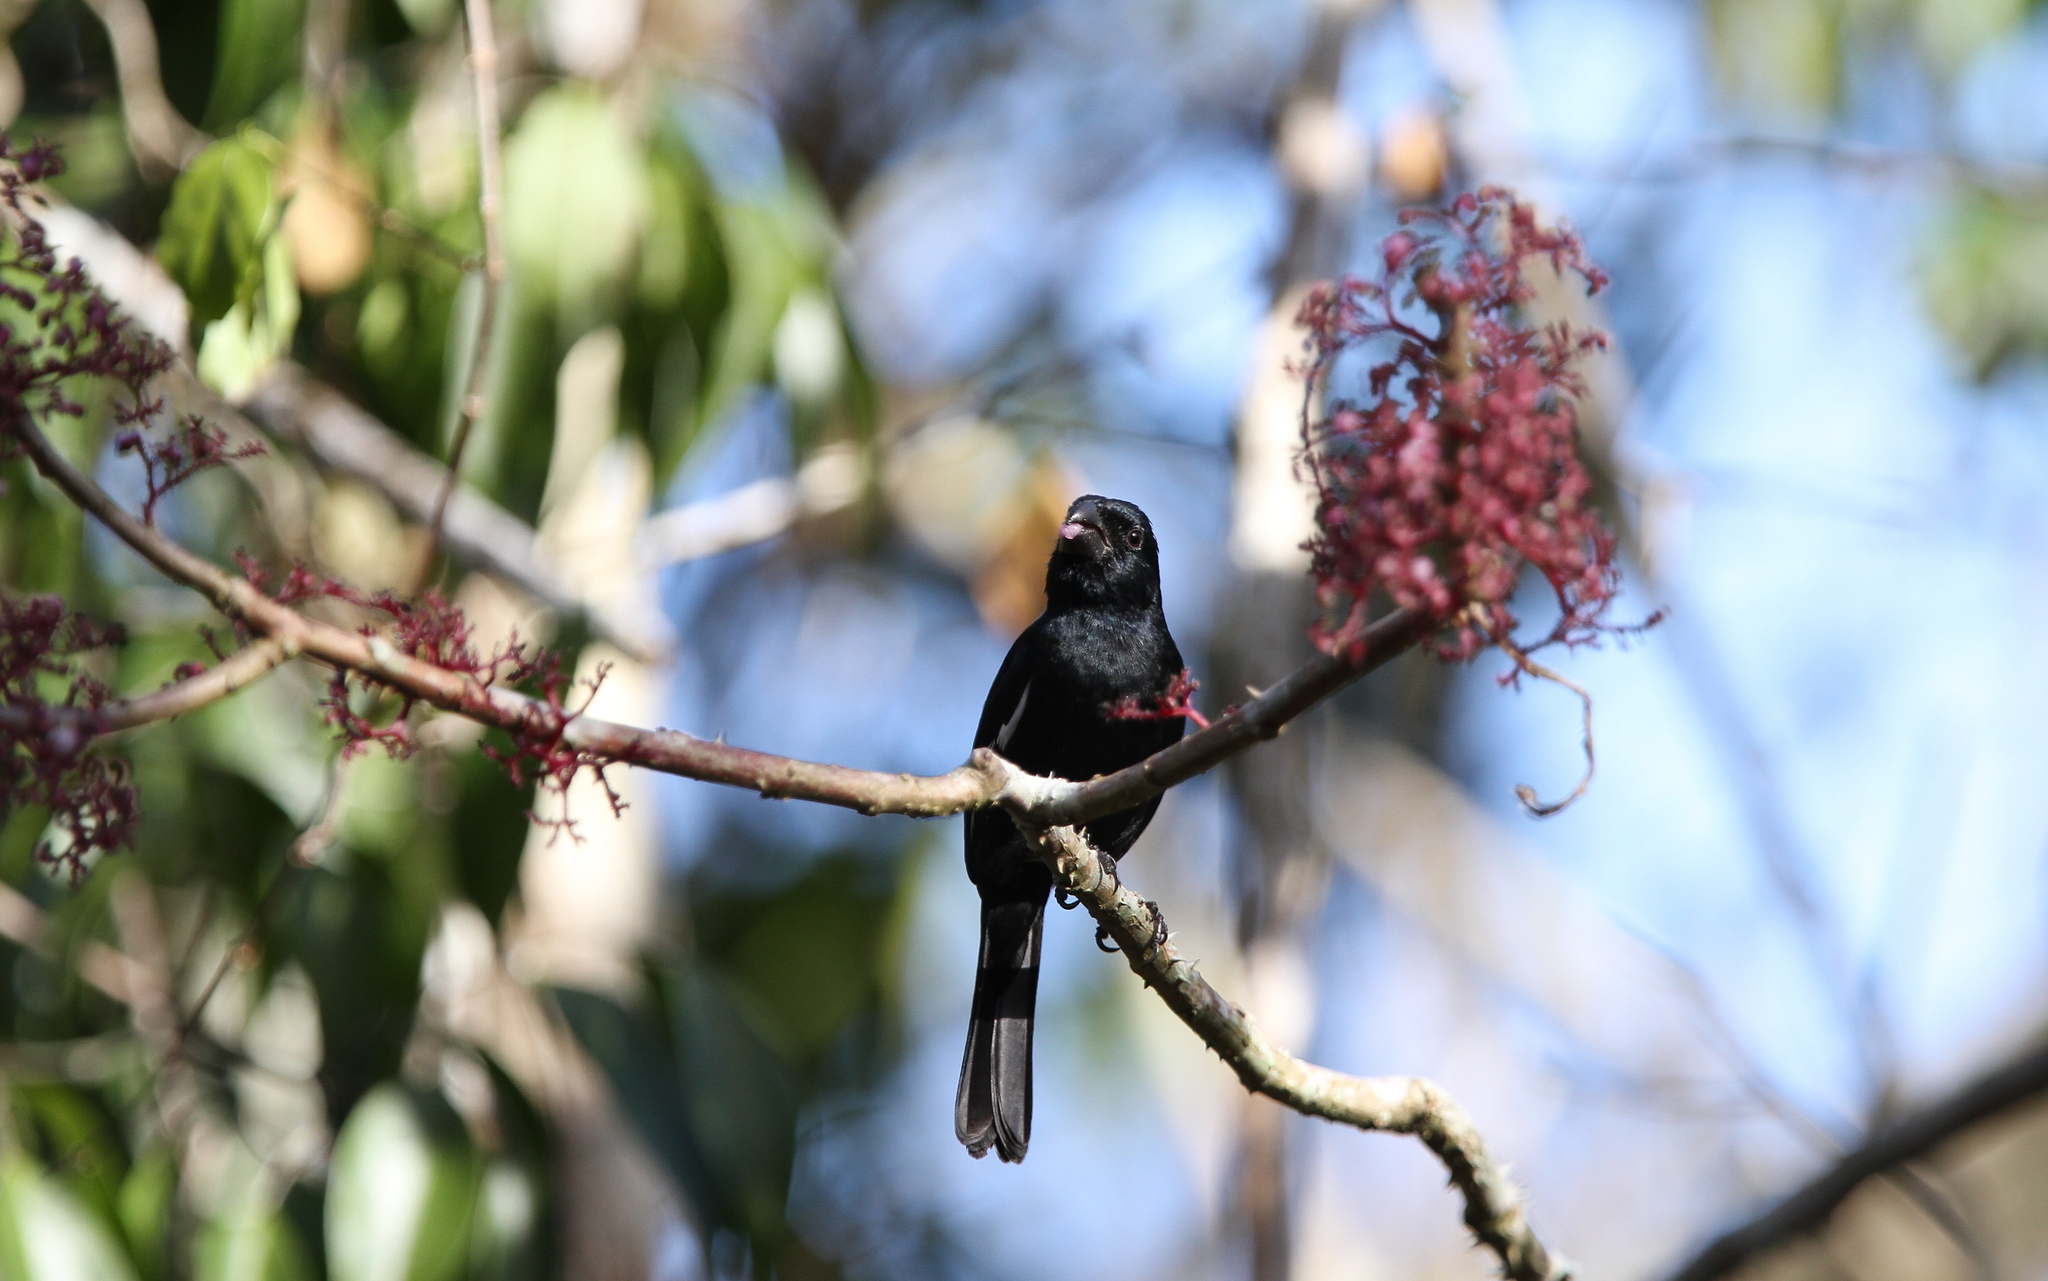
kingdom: Animalia
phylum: Chordata
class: Aves
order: Passeriformes
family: Thraupidae
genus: Melopyrrha
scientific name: Melopyrrha nigra
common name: Cuban bullfinch
